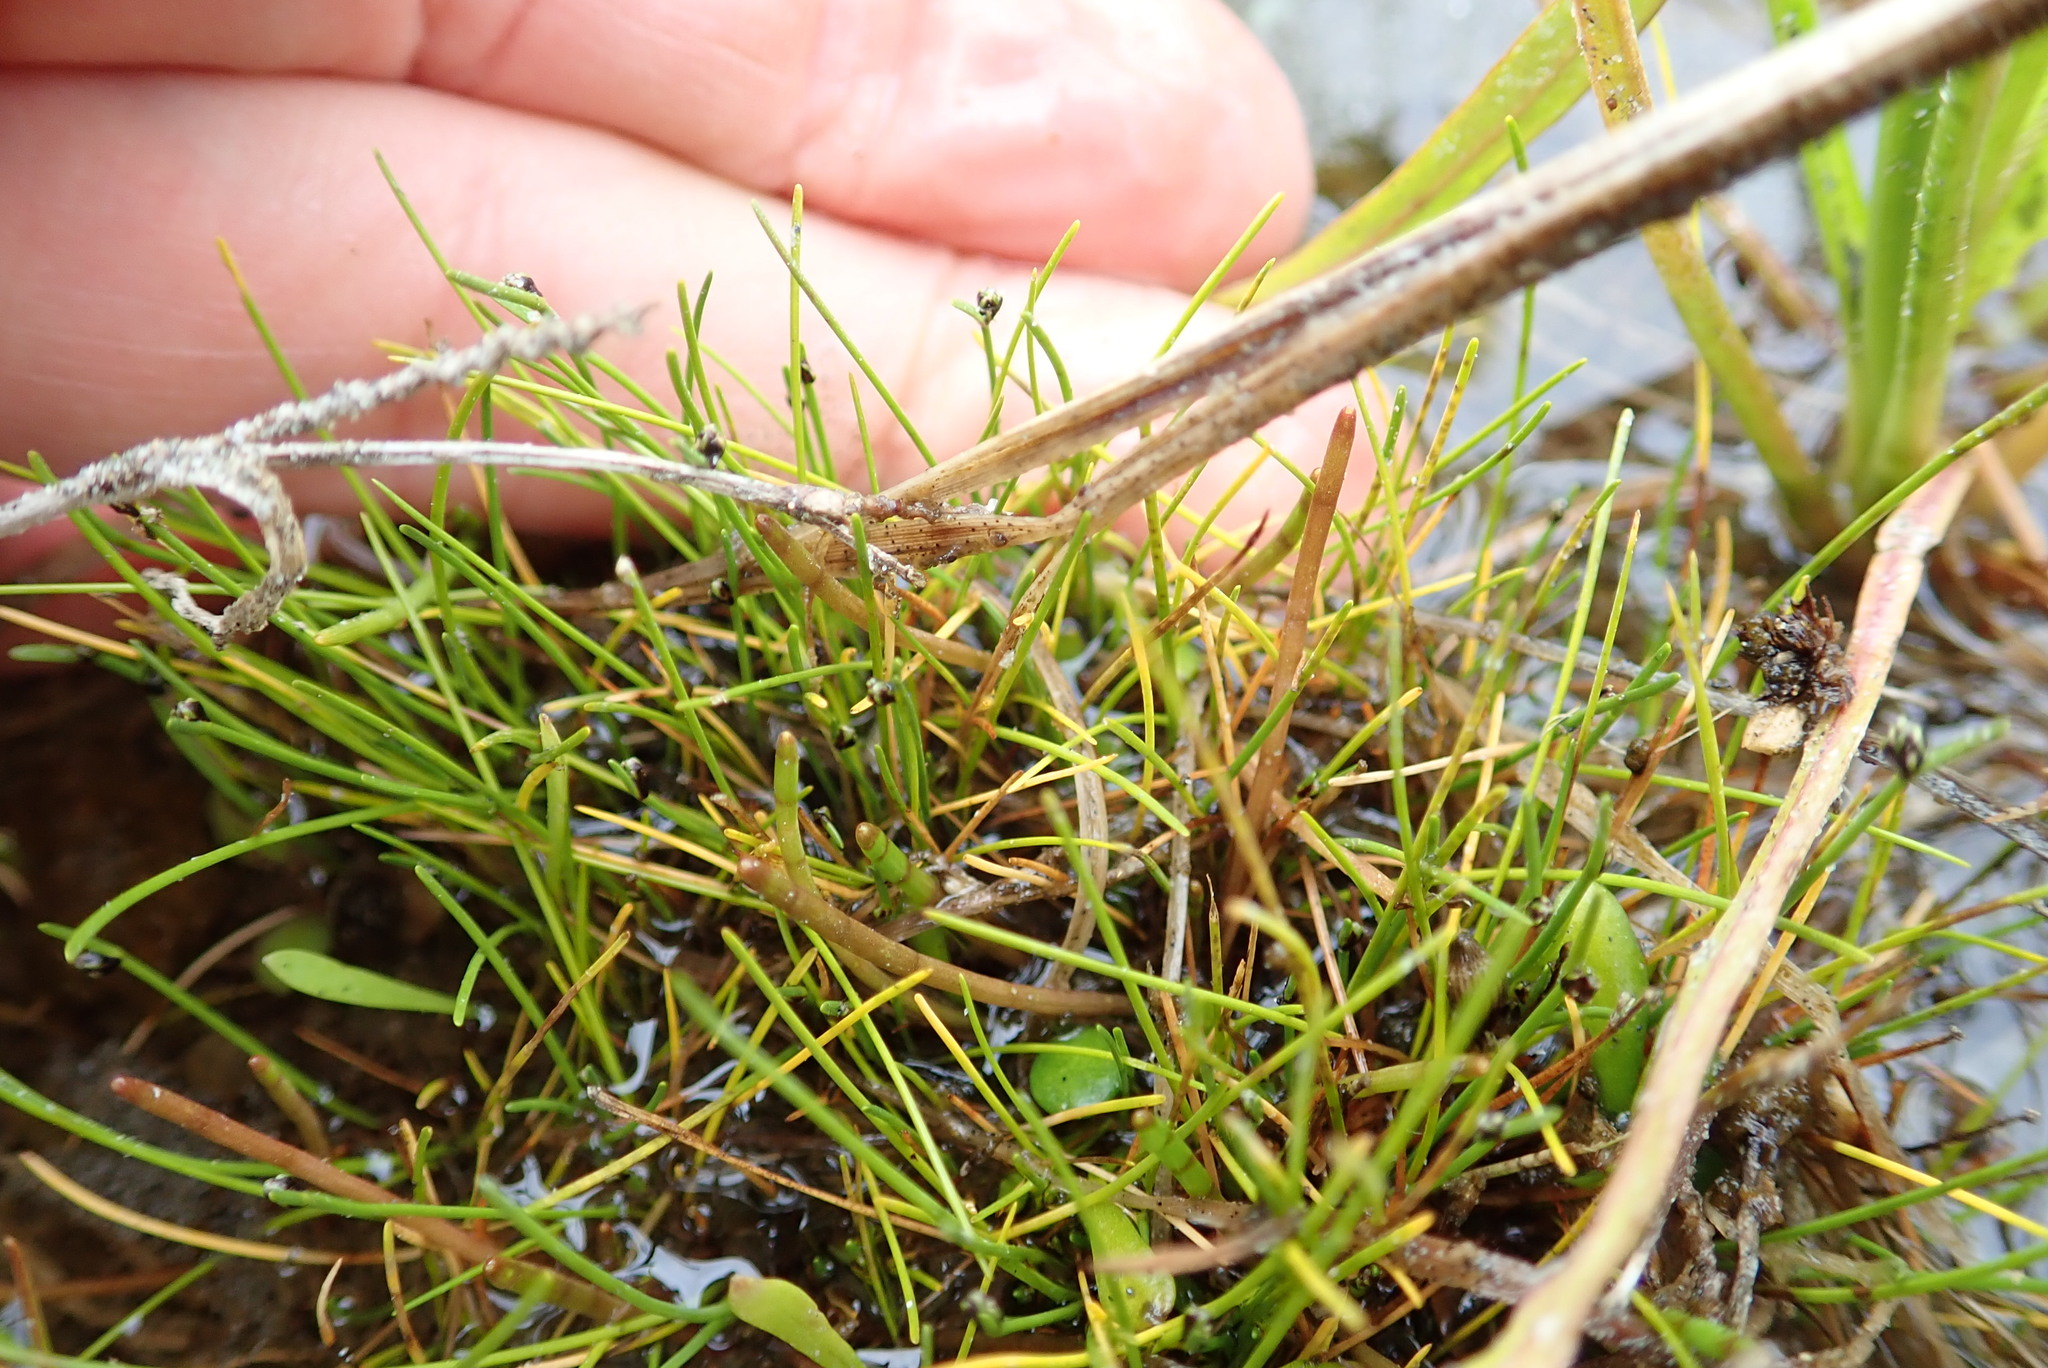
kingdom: Plantae
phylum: Tracheophyta
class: Liliopsida
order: Poales
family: Cyperaceae
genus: Isolepis
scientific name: Isolepis cernua
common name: Slender club-rush
